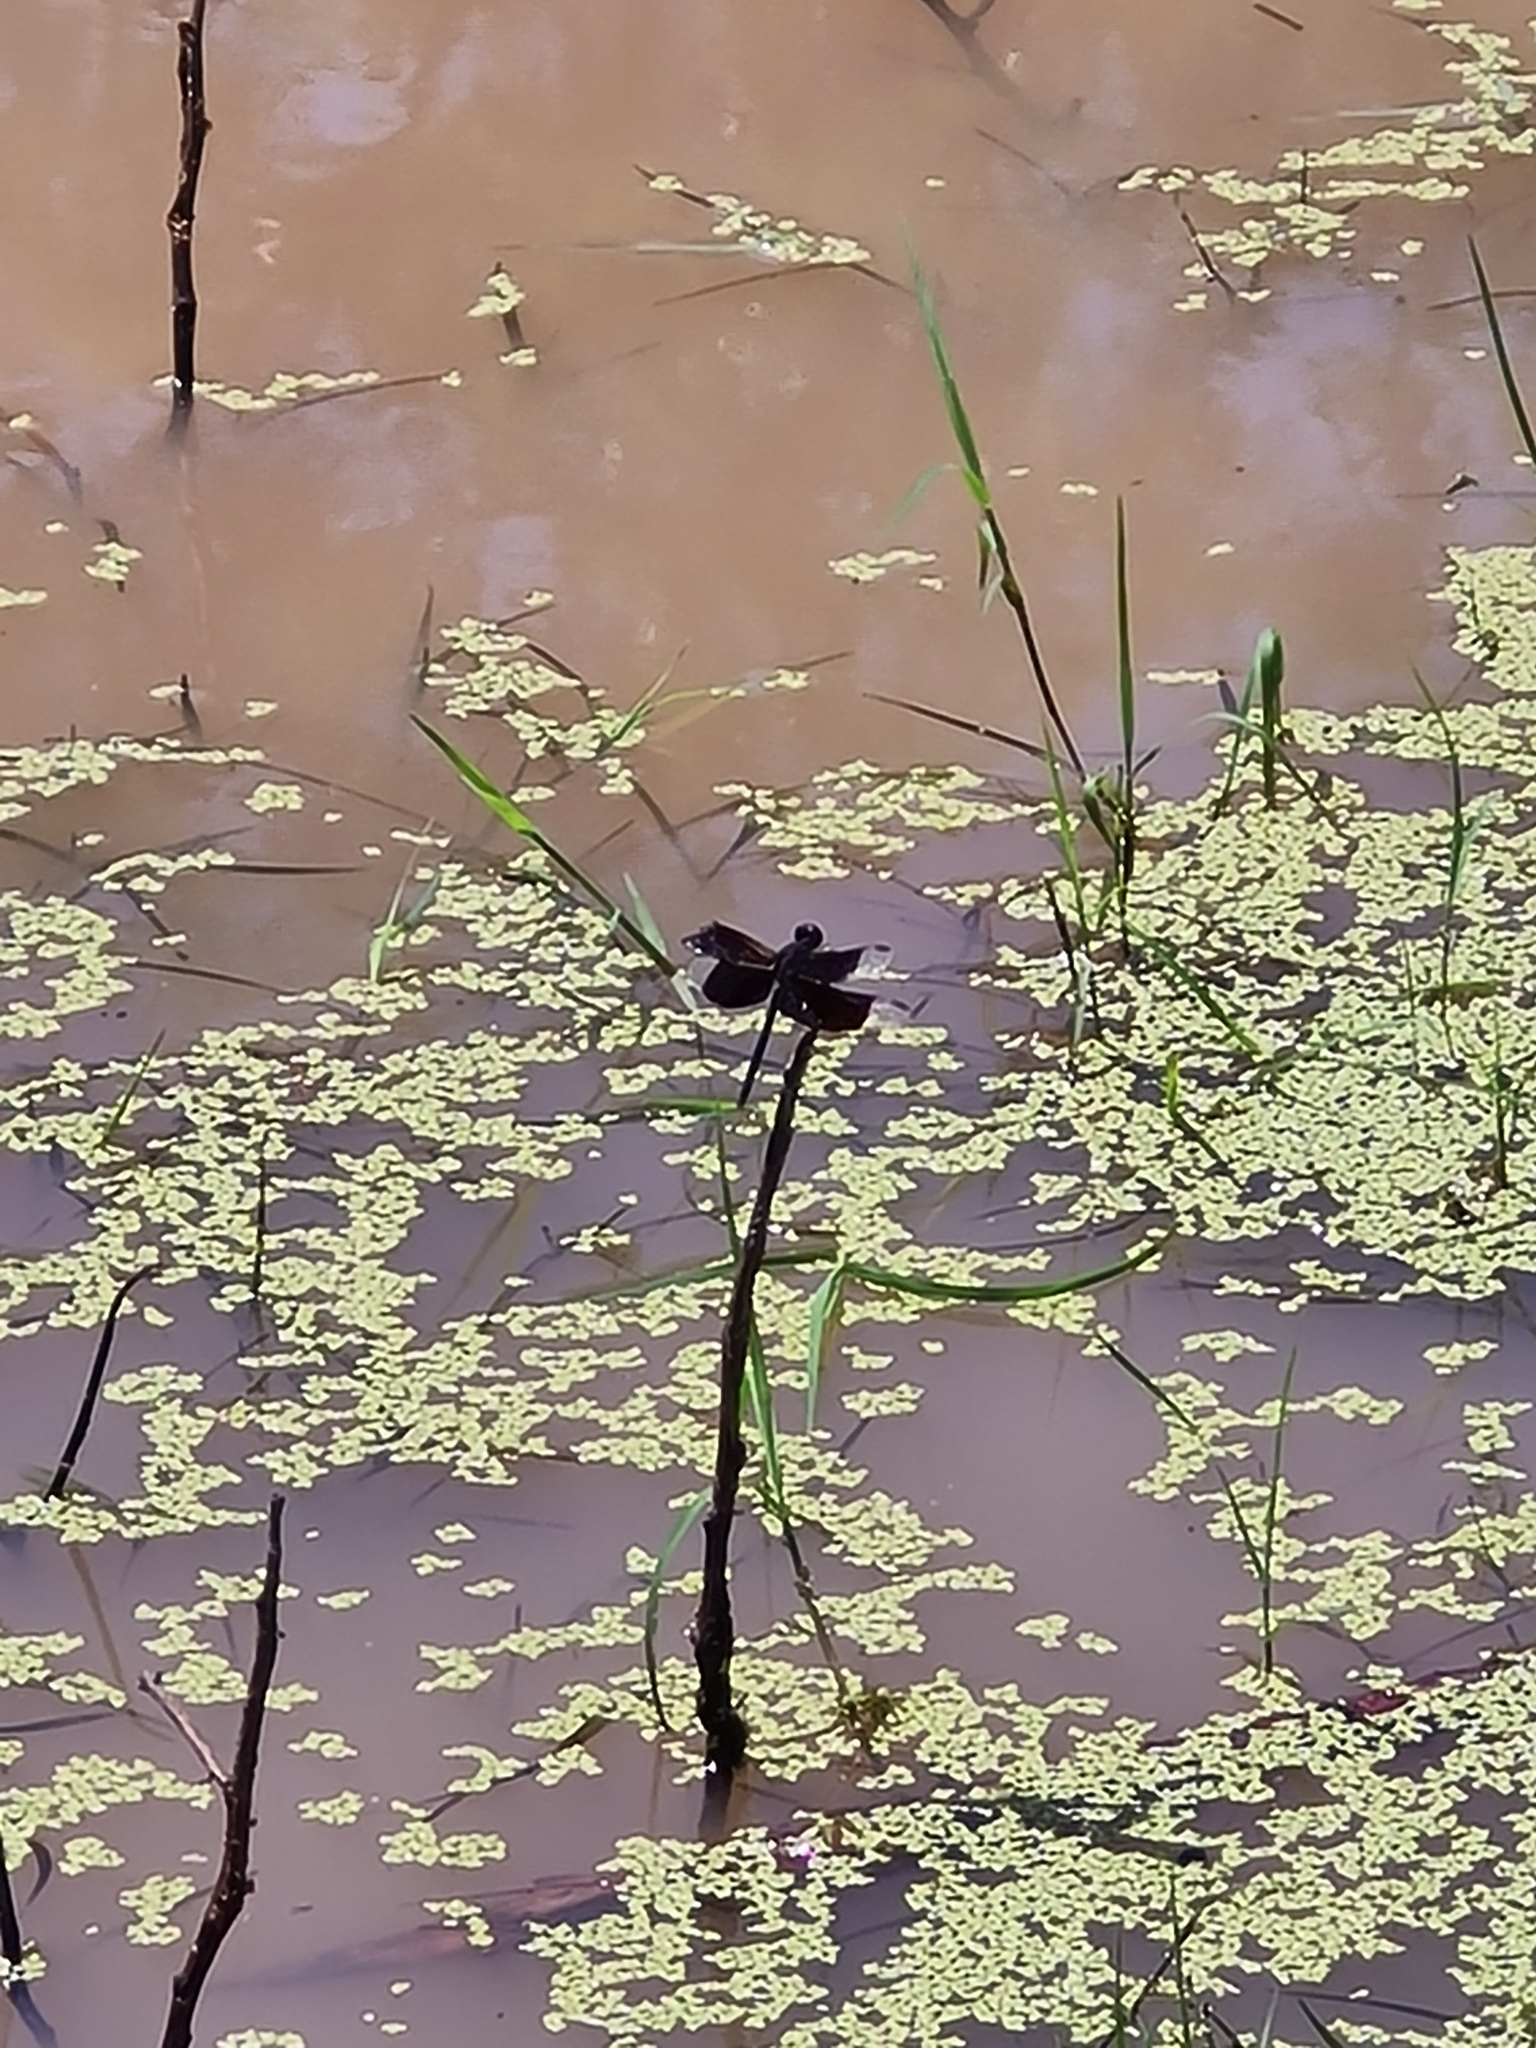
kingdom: Animalia
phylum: Arthropoda
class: Insecta
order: Odonata
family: Libellulidae
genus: Erythrodiplax
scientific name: Erythrodiplax funerea
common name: Black-winged dragonlet
